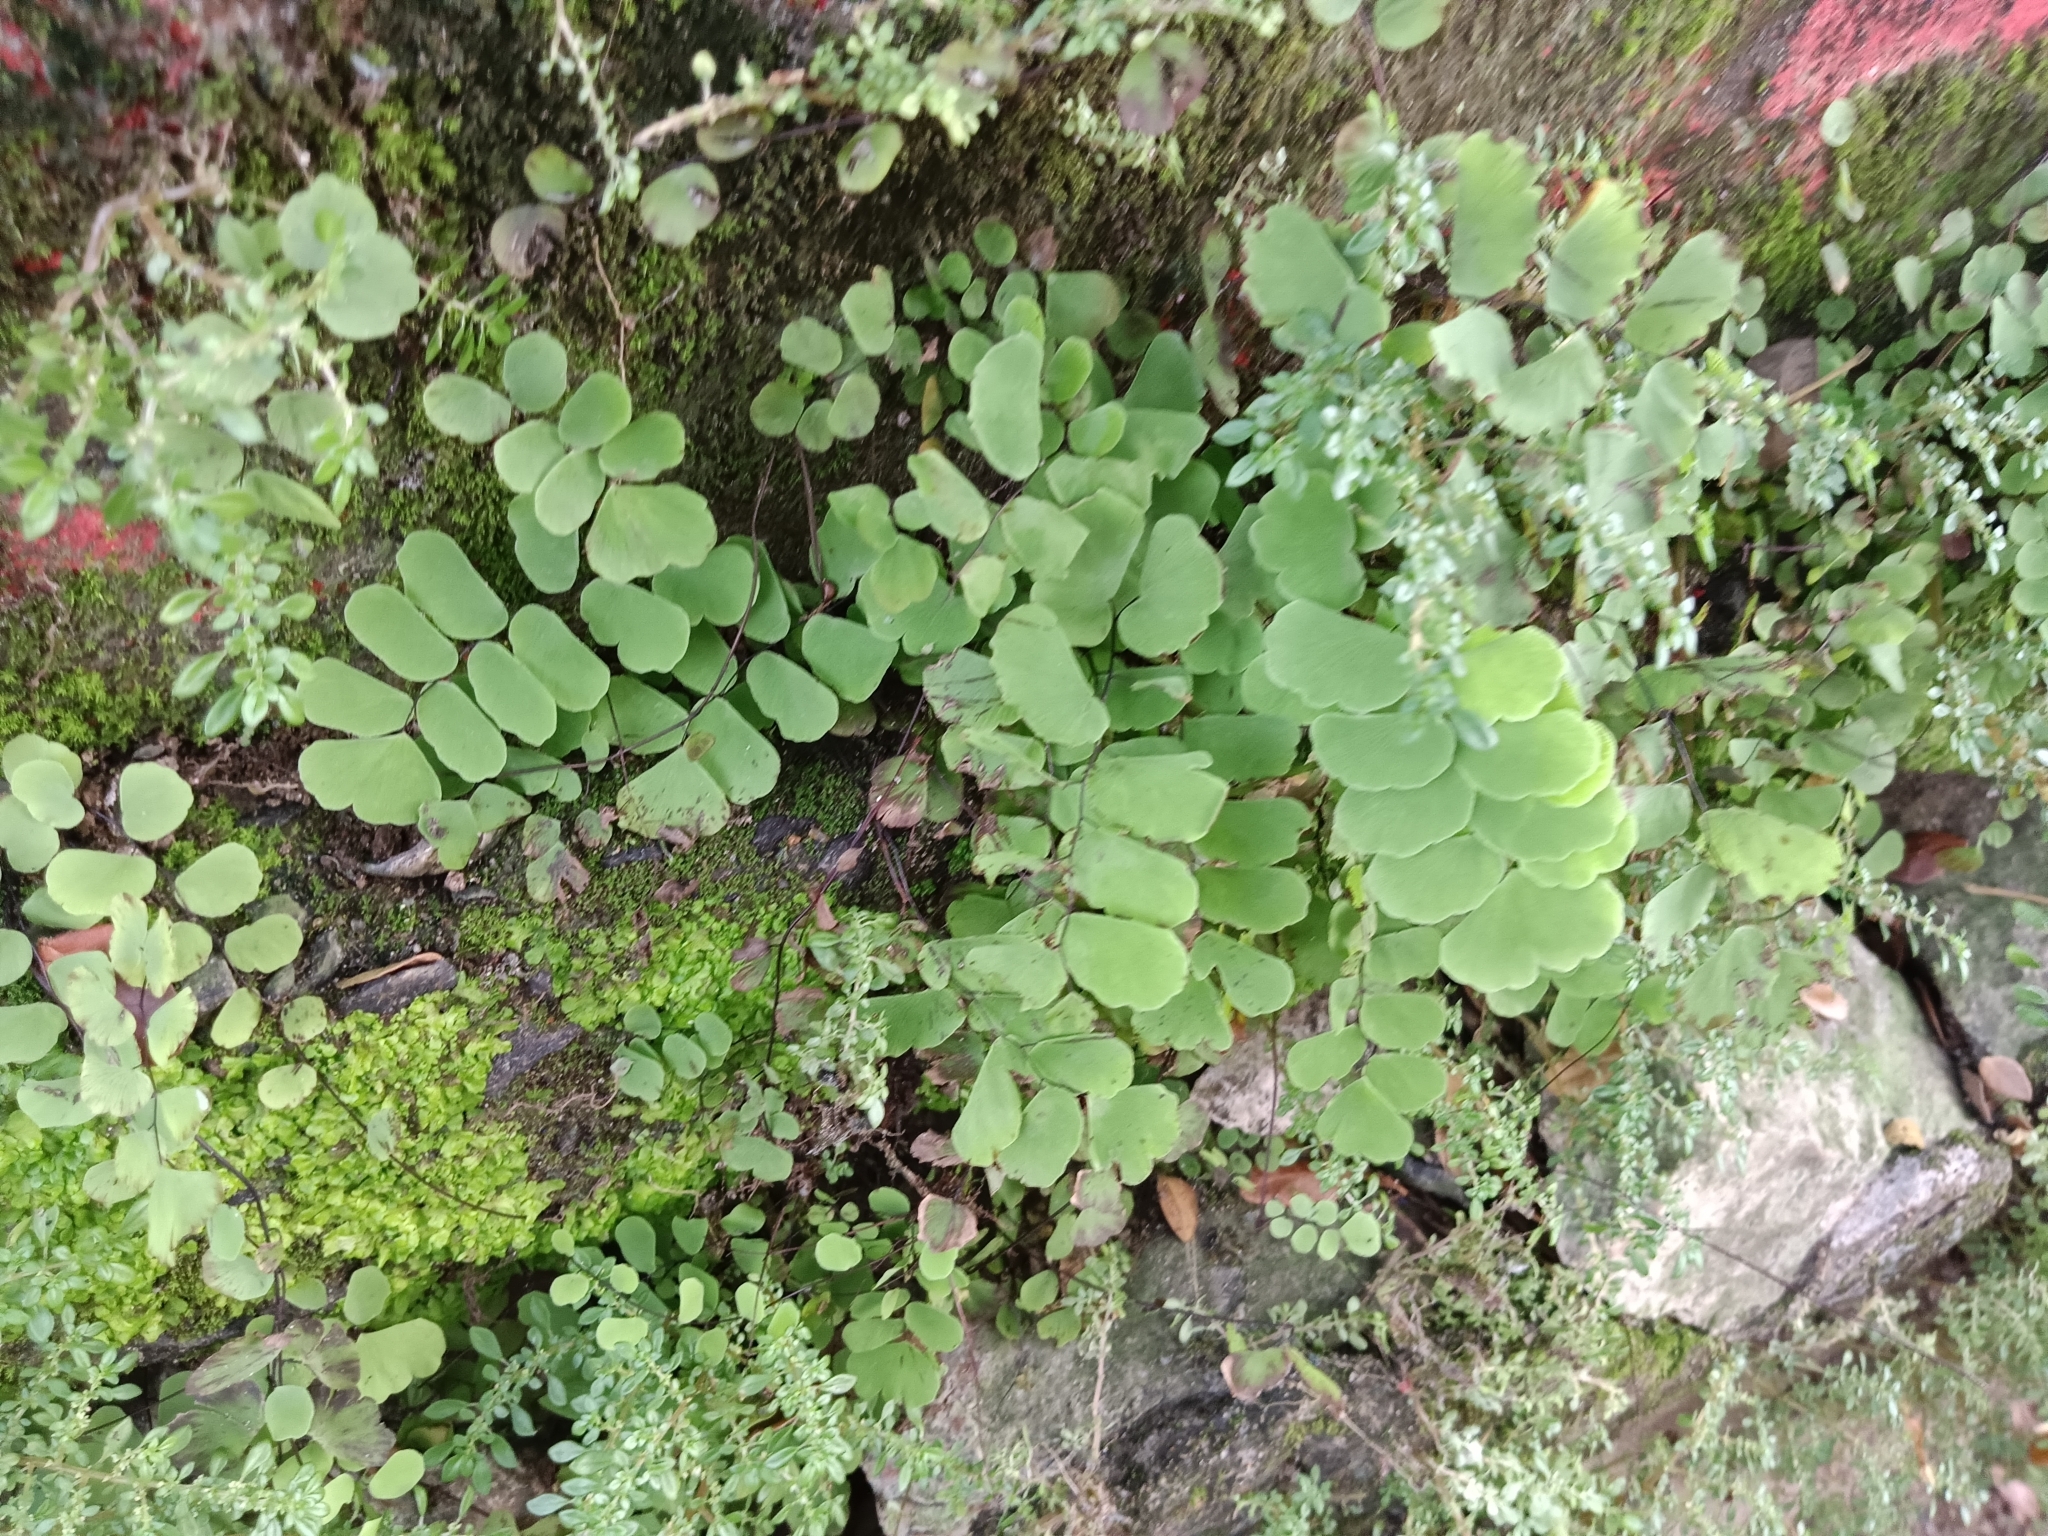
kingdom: Plantae
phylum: Tracheophyta
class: Polypodiopsida
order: Polypodiales
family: Pteridaceae
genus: Adiantum
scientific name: Adiantum philippense
